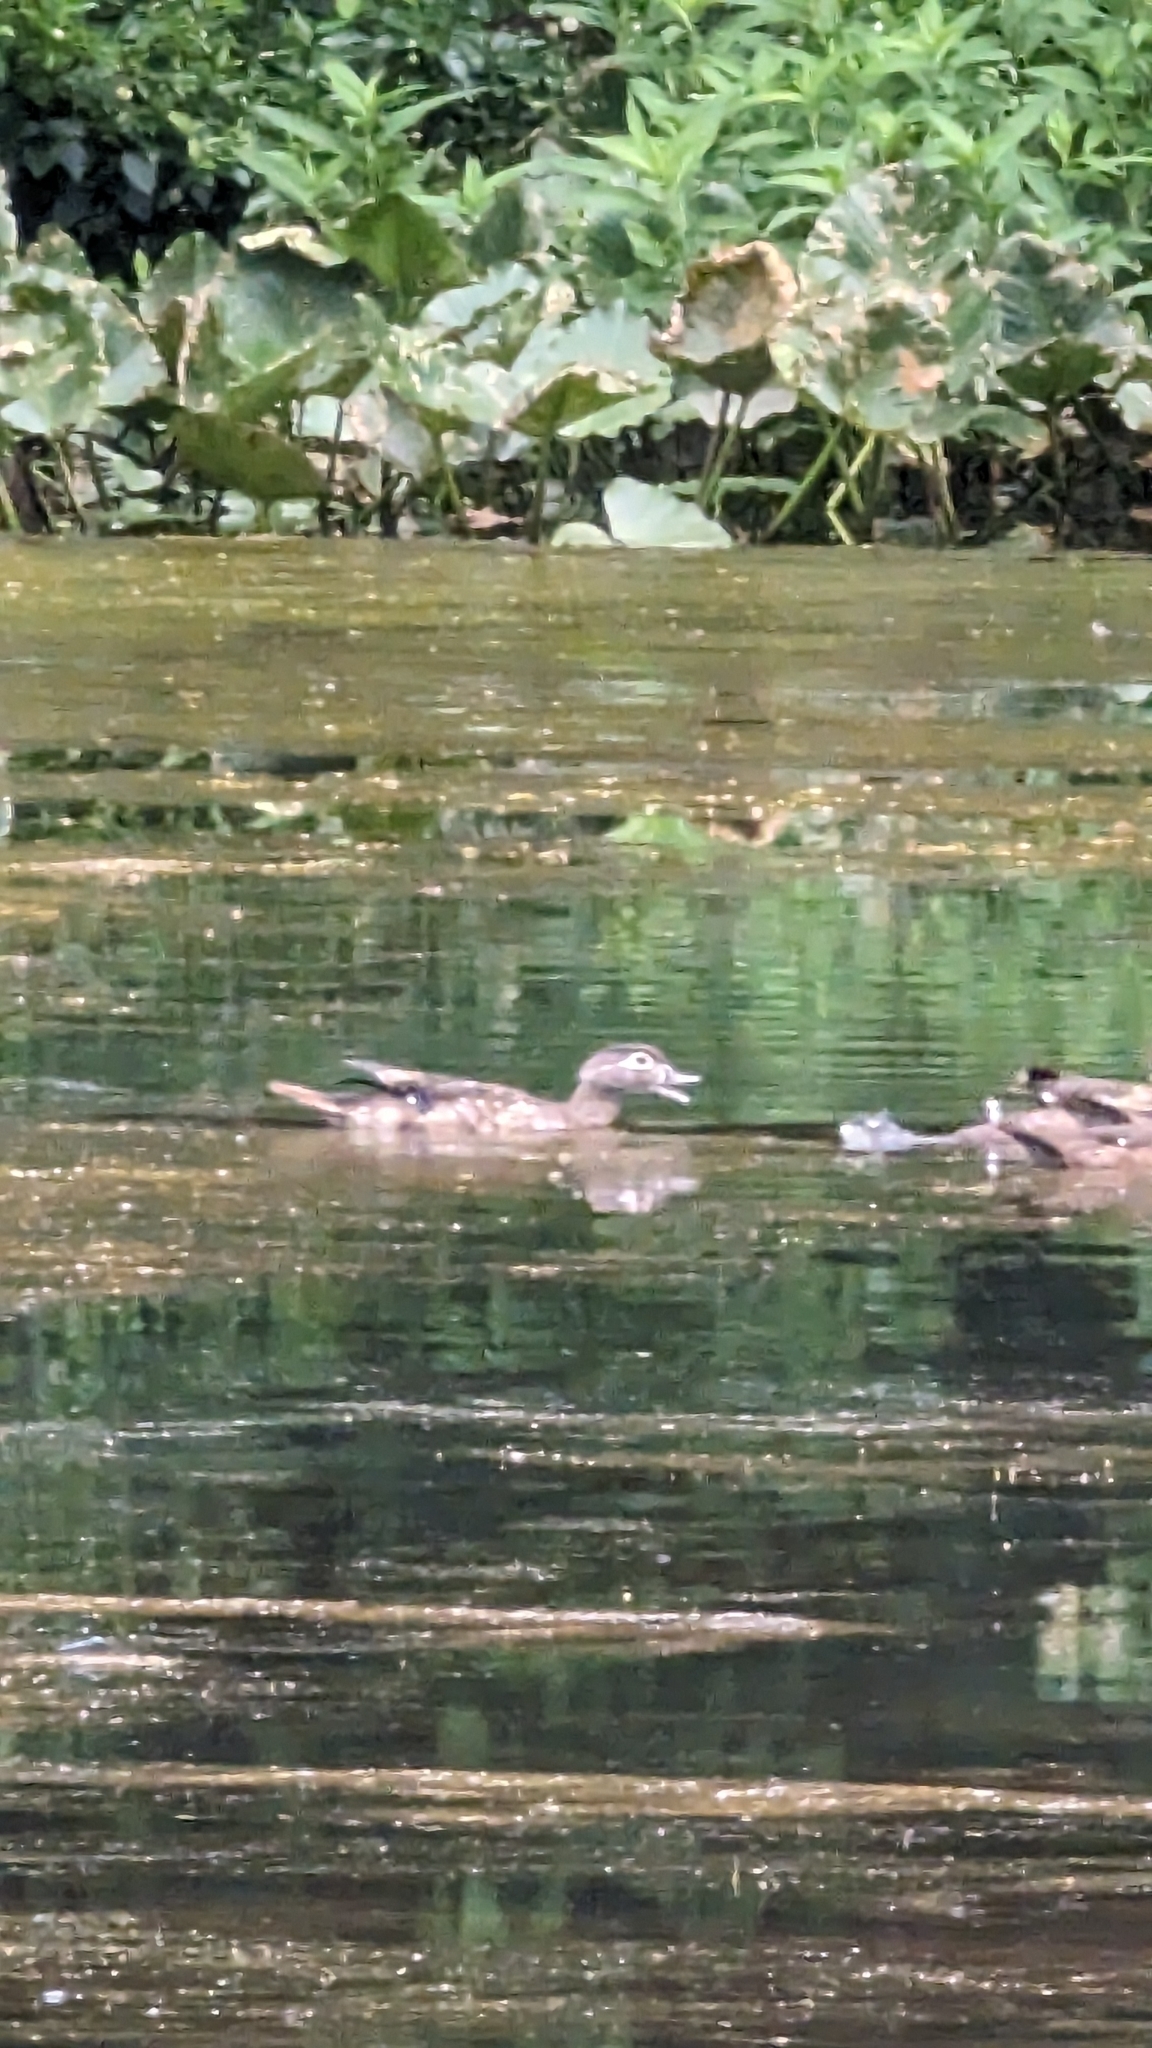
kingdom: Animalia
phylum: Chordata
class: Aves
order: Anseriformes
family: Anatidae
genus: Aix
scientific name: Aix sponsa
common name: Wood duck
